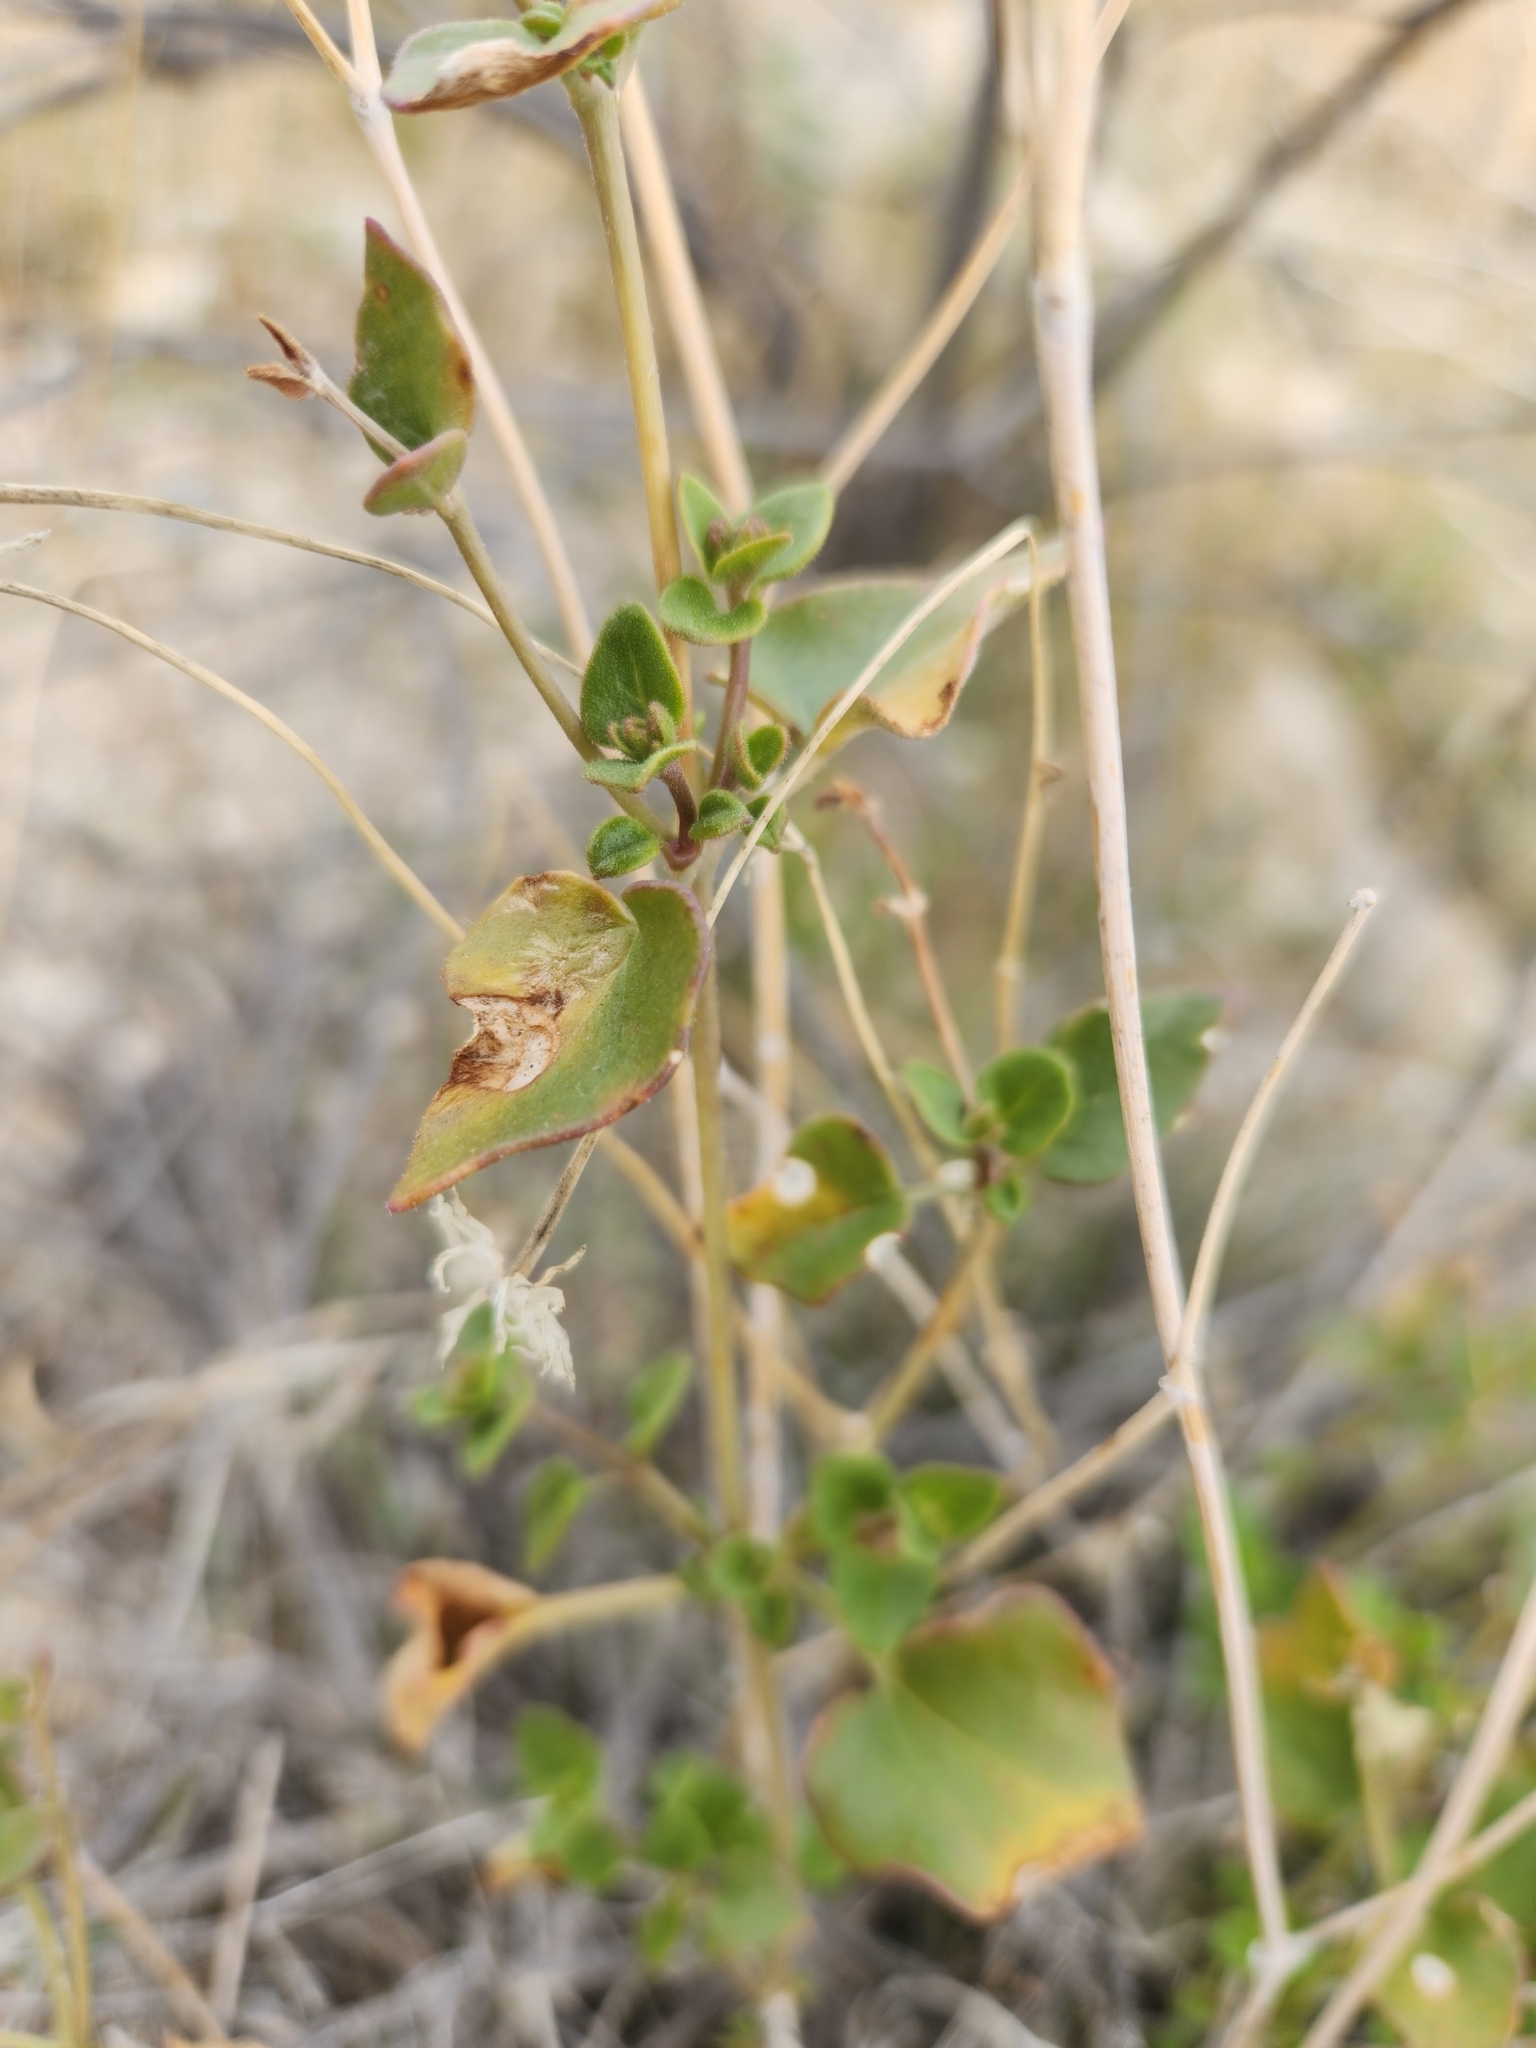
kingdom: Plantae
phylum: Tracheophyta
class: Magnoliopsida
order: Caryophyllales
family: Nyctaginaceae
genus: Mirabilis
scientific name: Mirabilis laevis
